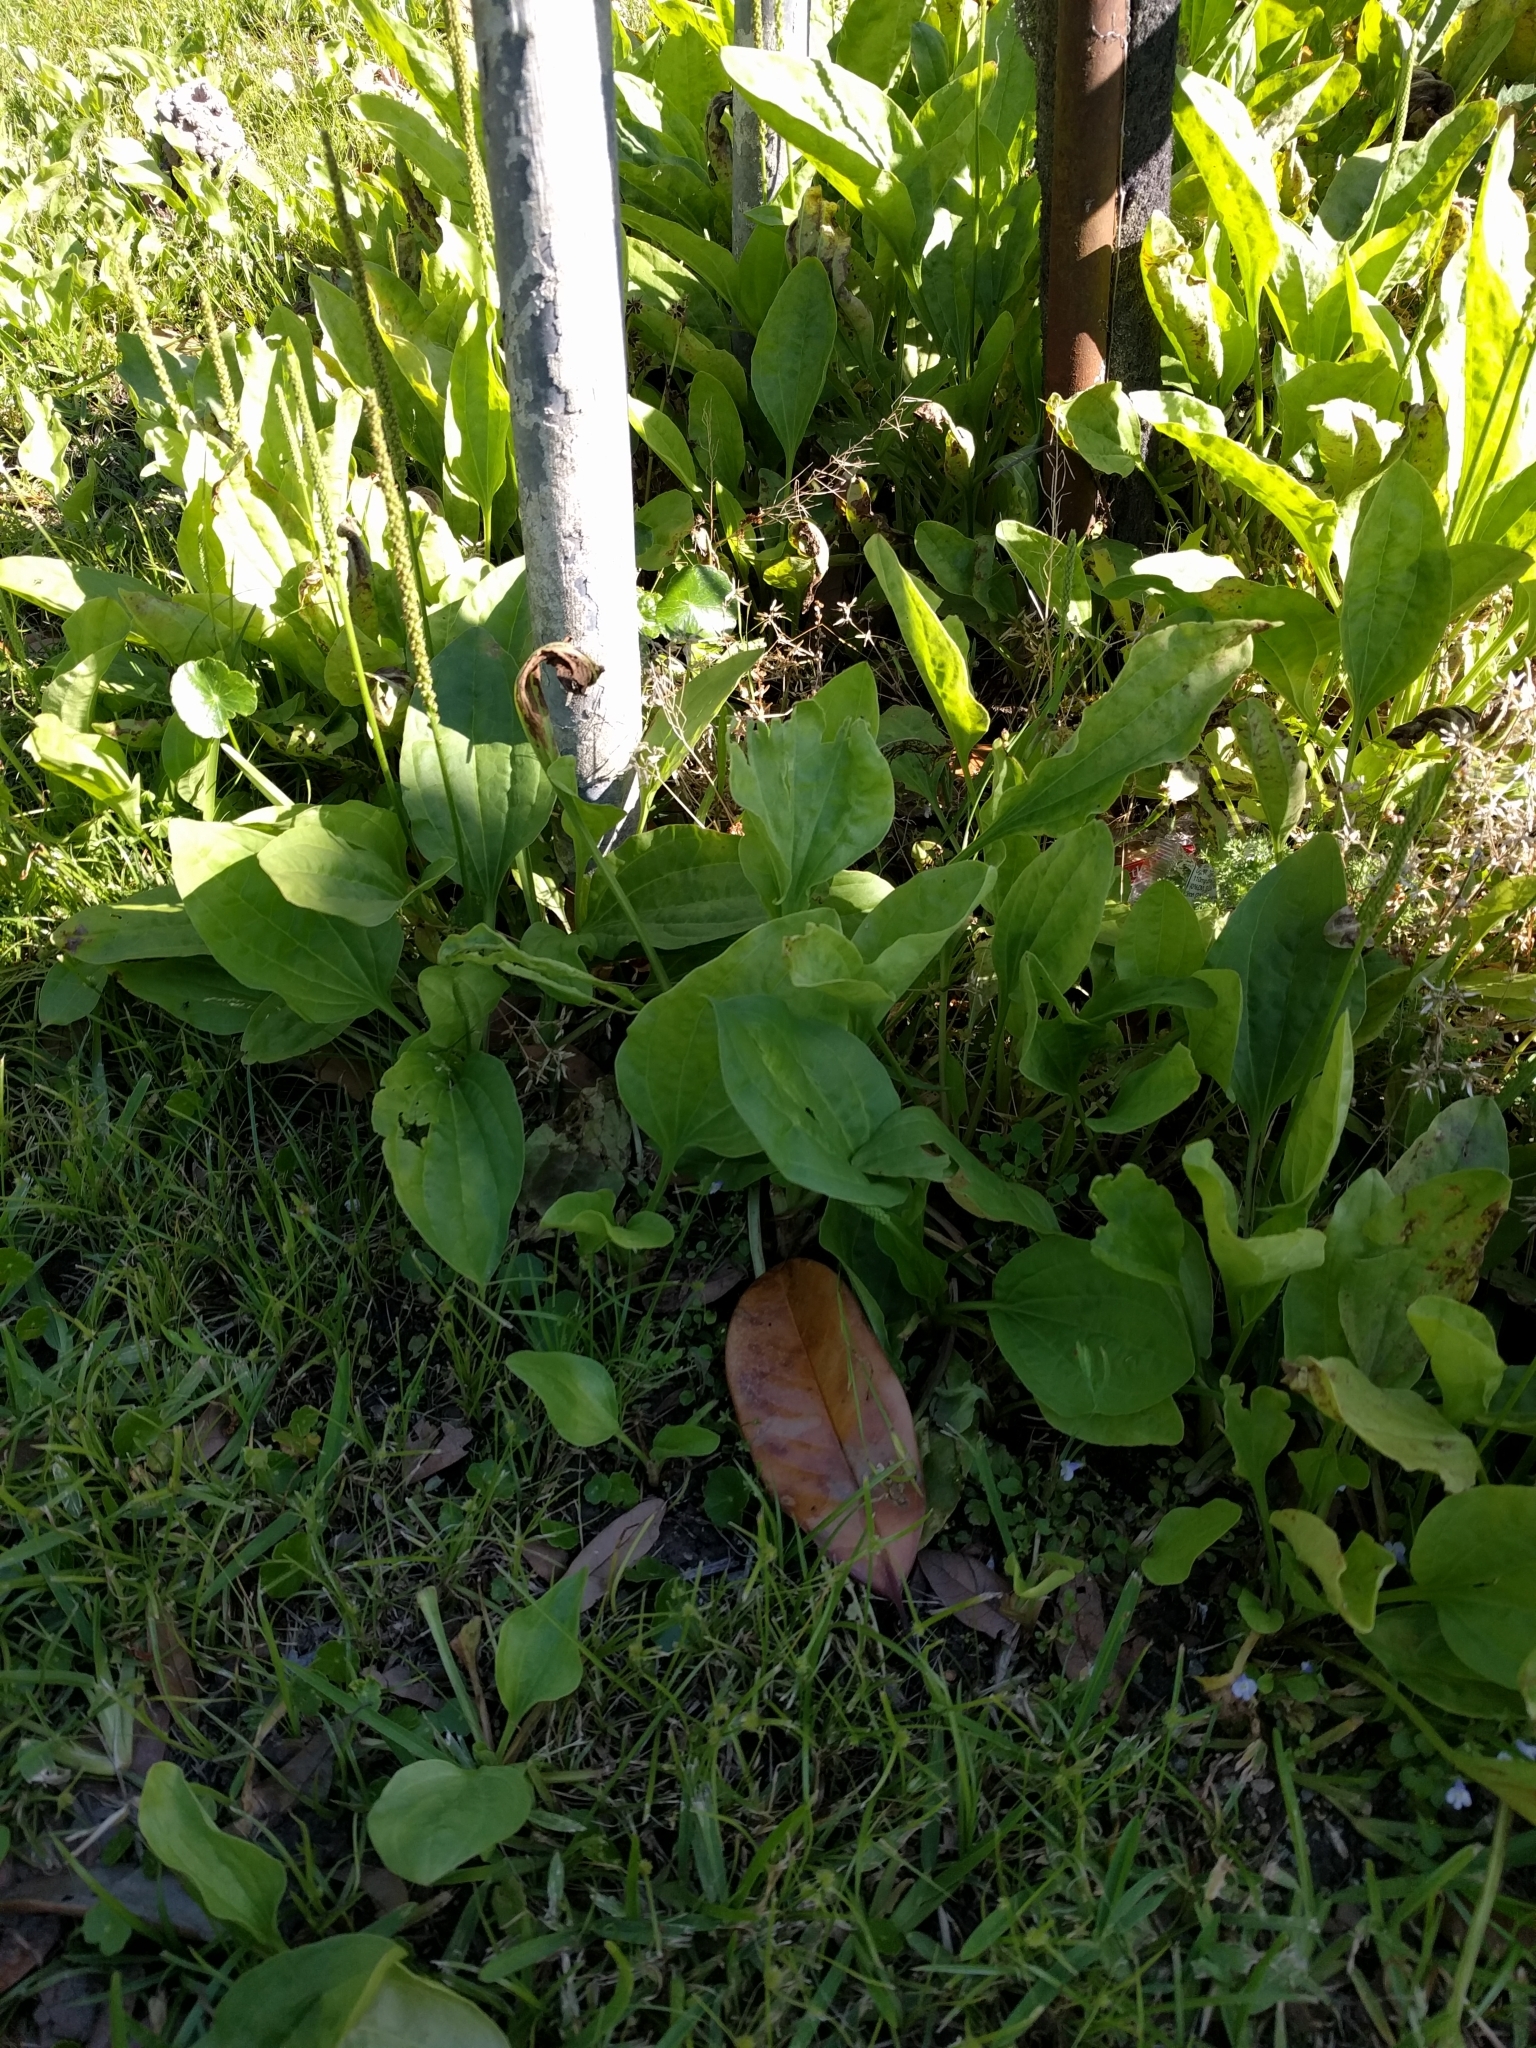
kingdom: Plantae
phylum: Tracheophyta
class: Magnoliopsida
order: Lamiales
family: Plantaginaceae
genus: Plantago
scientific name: Plantago major
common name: Common plantain
